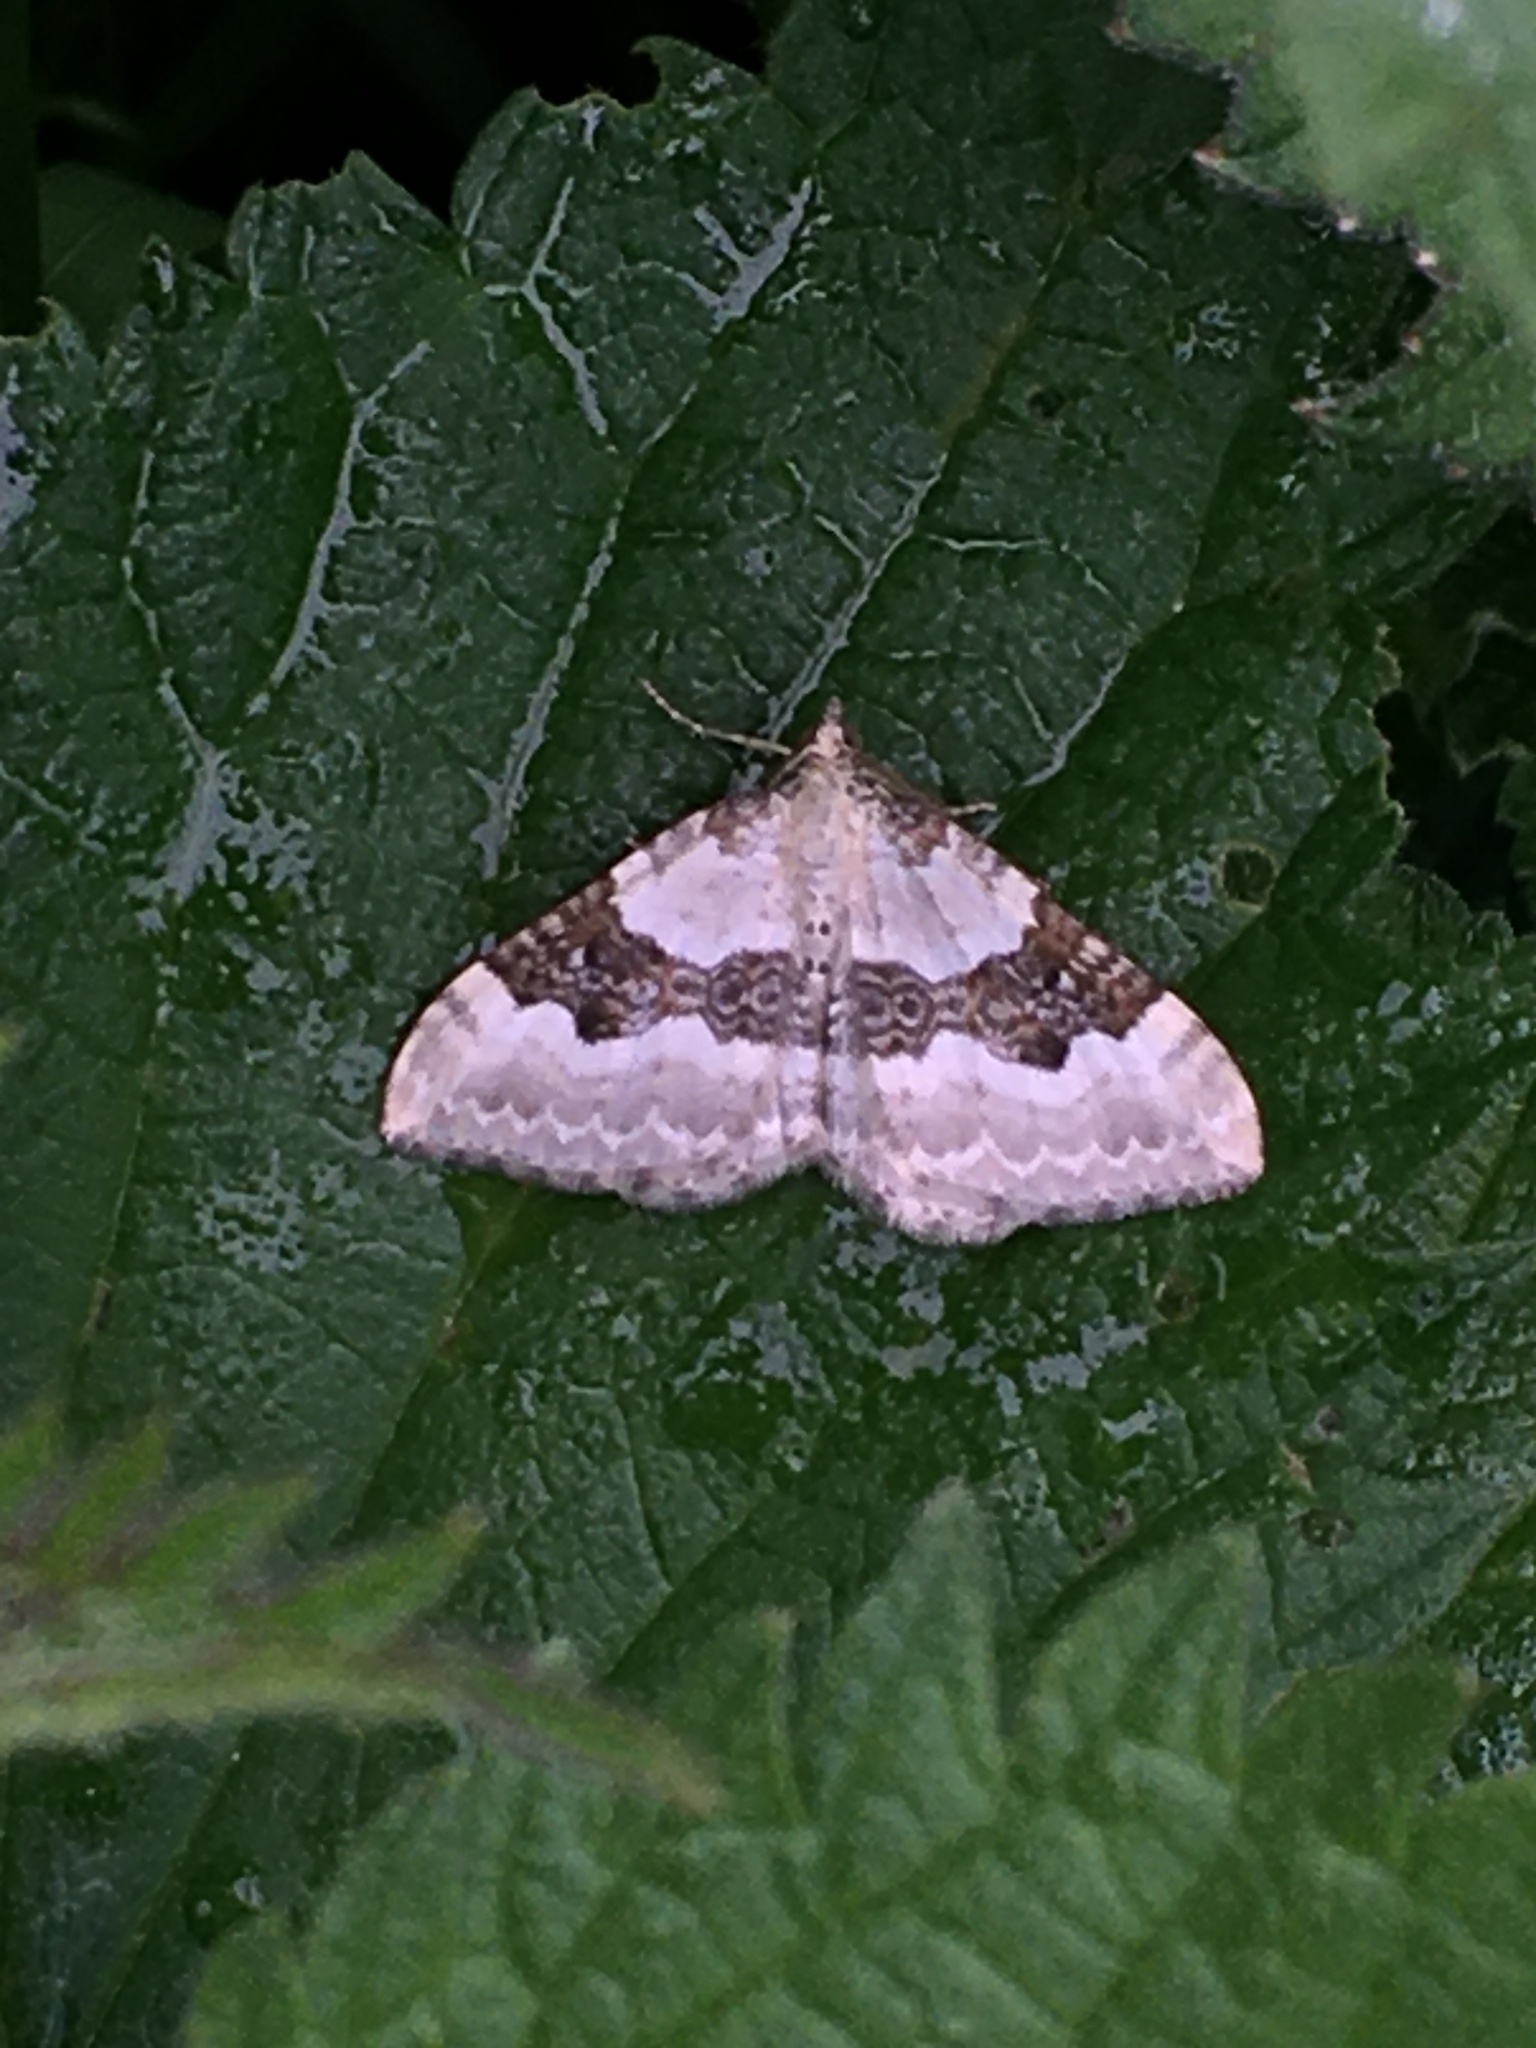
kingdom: Animalia
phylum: Arthropoda
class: Insecta
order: Lepidoptera
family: Geometridae
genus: Xanthorhoe
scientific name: Xanthorhoe montanata
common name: Silver-ground carpet
